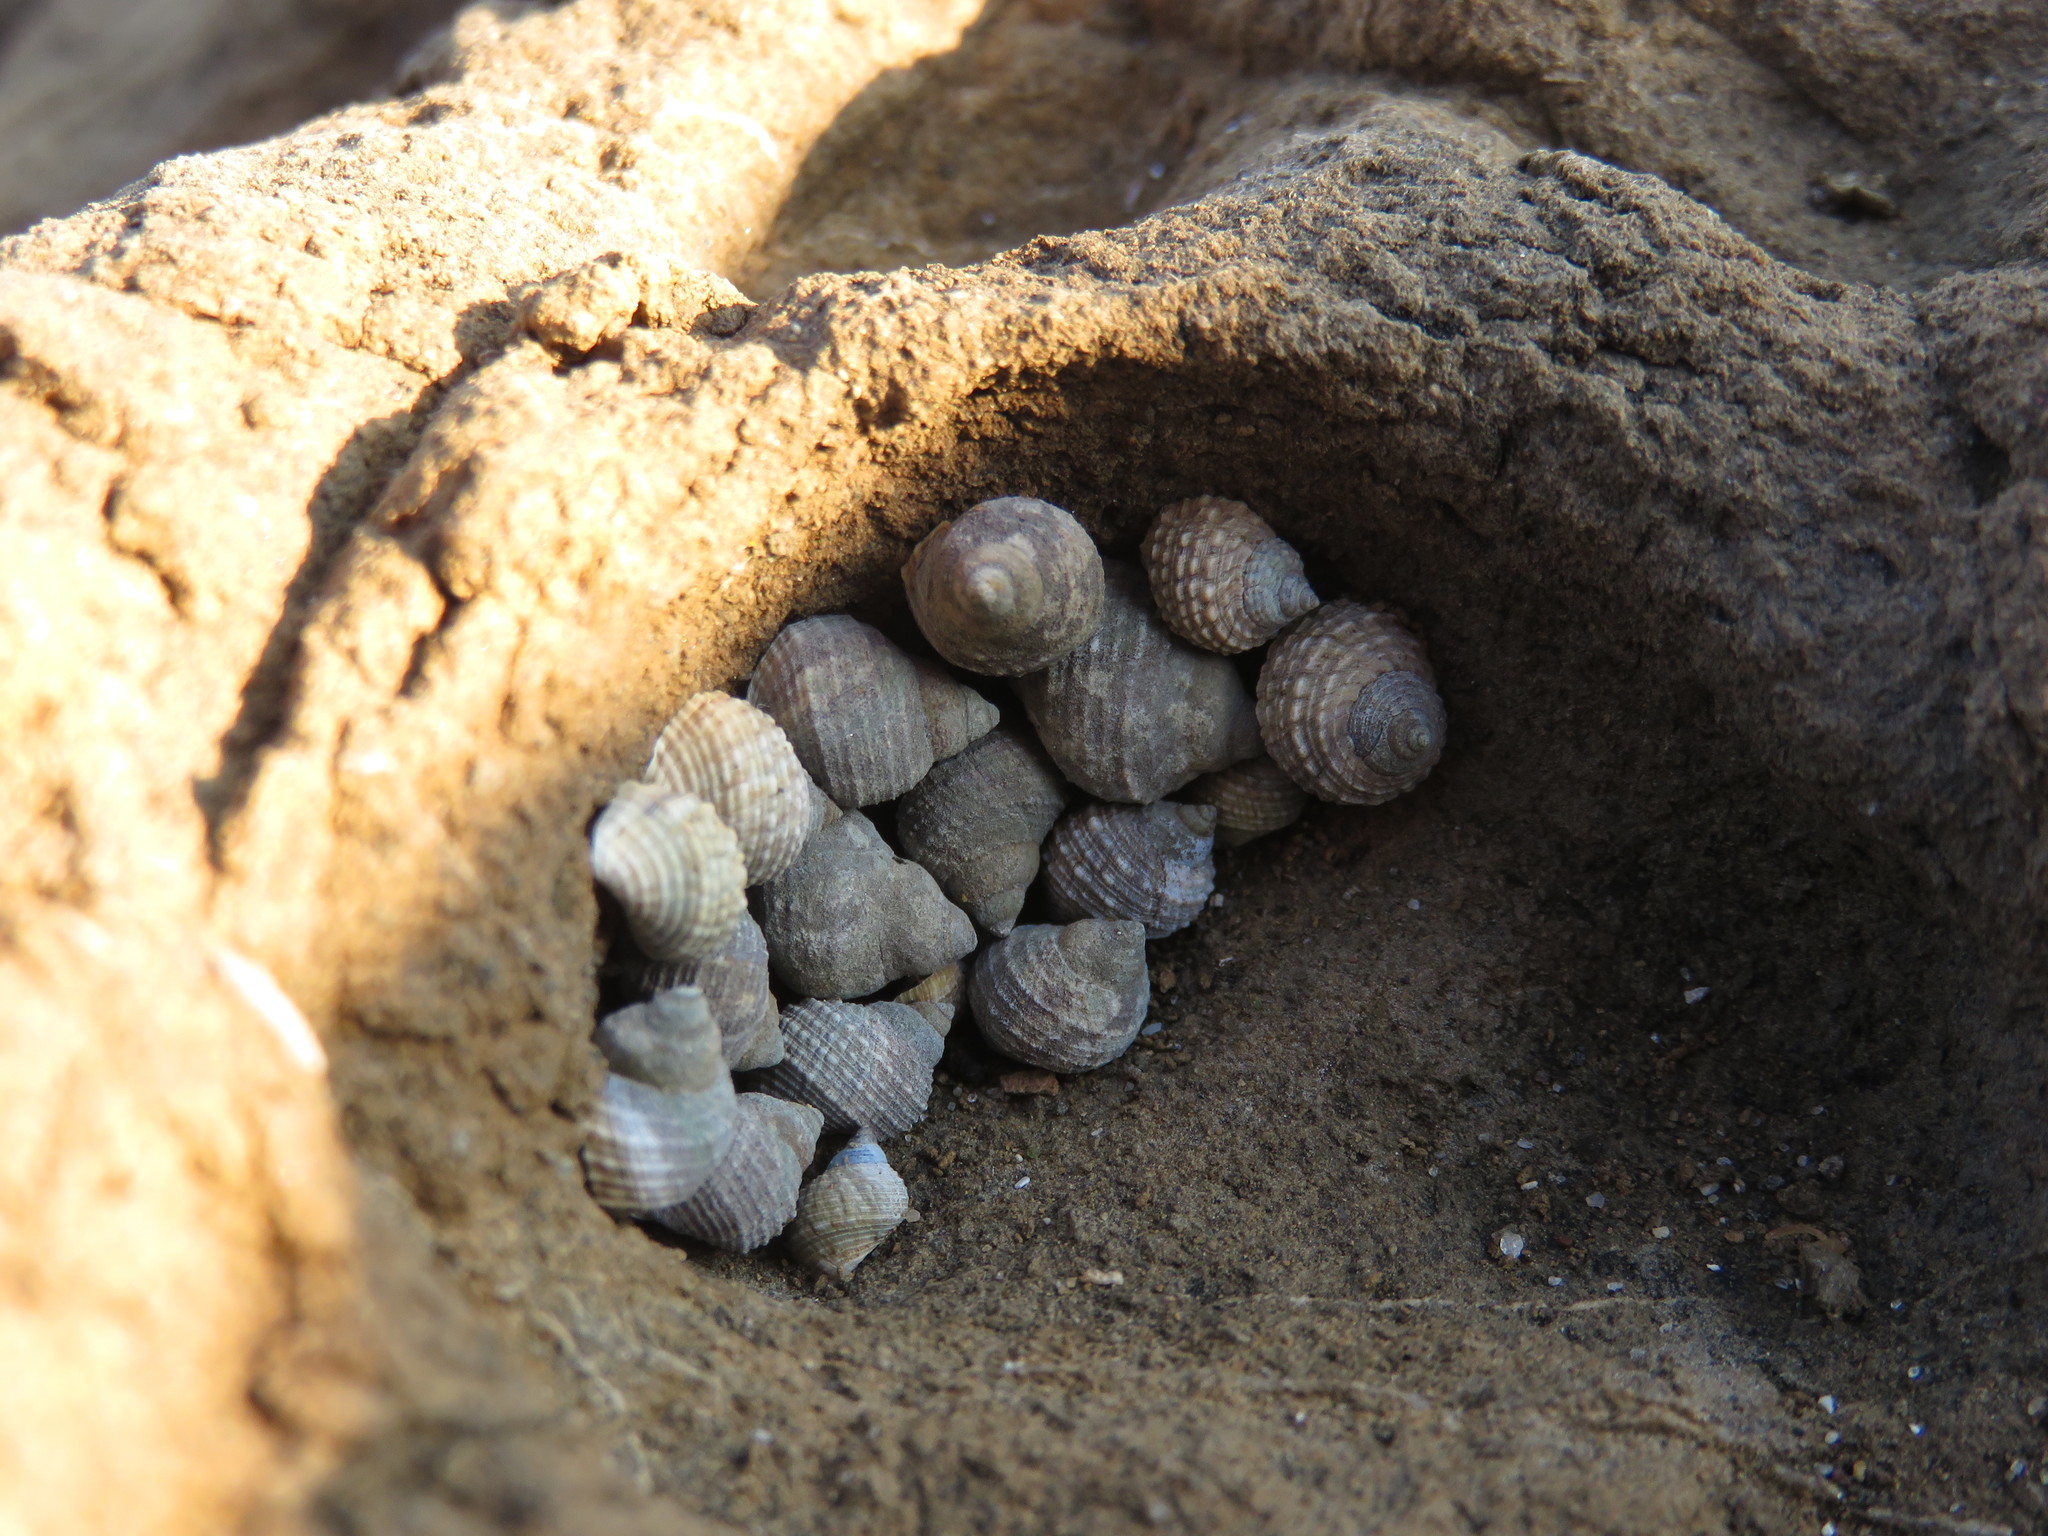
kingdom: Animalia
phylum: Mollusca
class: Gastropoda
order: Littorinimorpha
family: Littorinidae
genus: Echinolittorina
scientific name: Echinolittorina radiata
